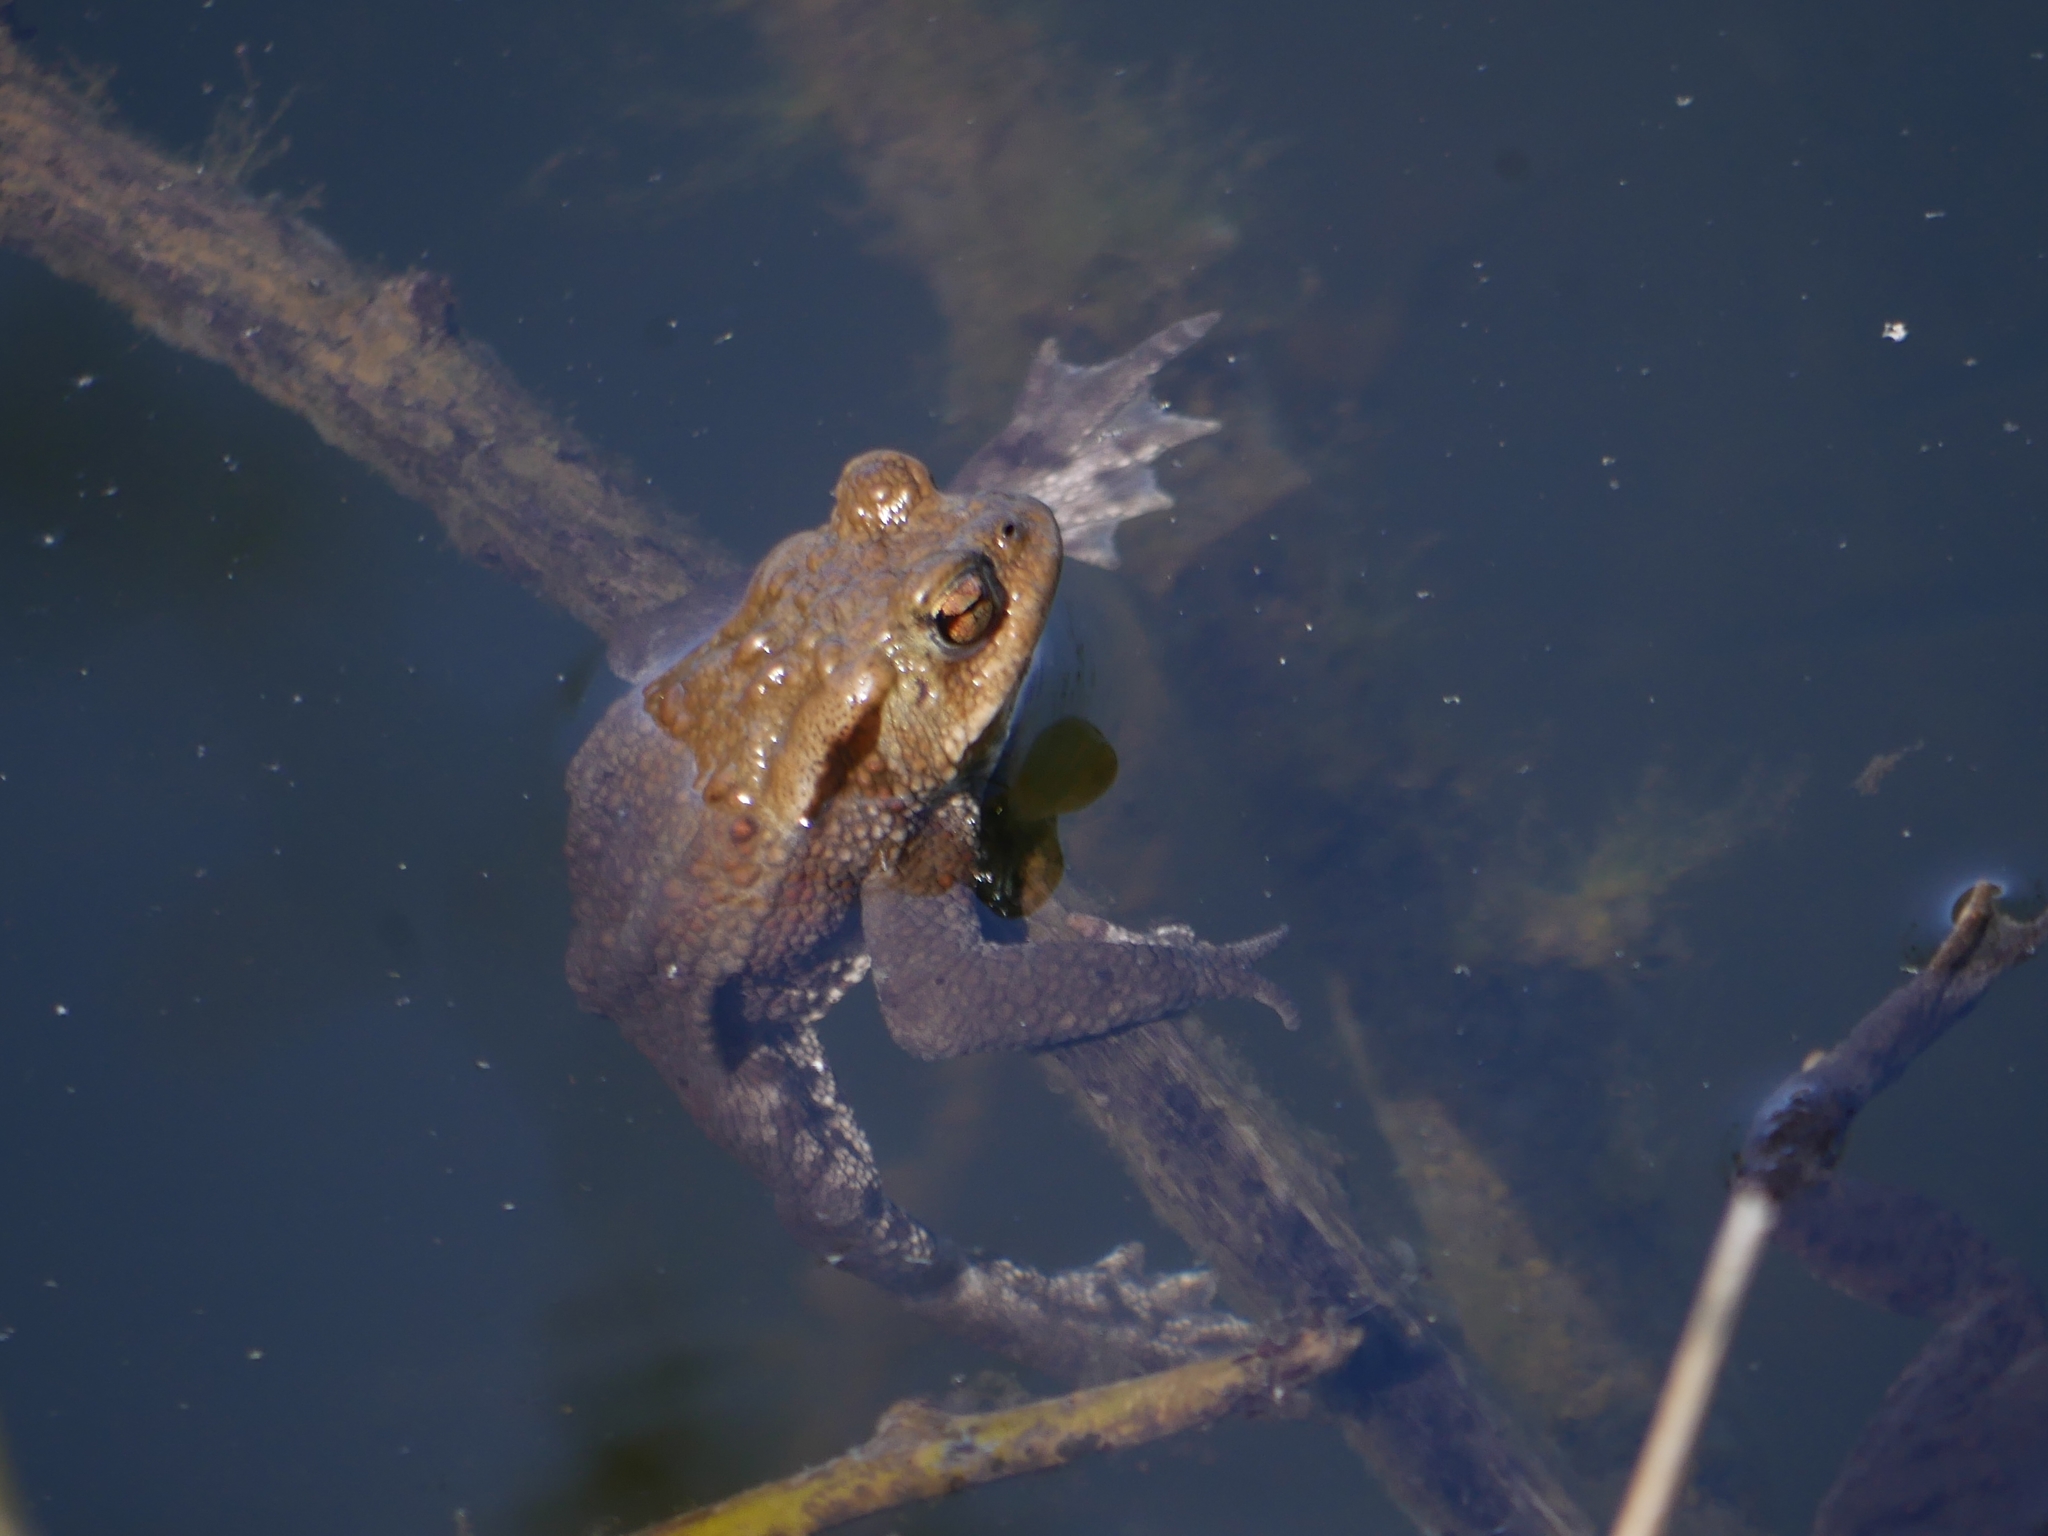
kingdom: Animalia
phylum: Chordata
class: Amphibia
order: Anura
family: Bufonidae
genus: Bufo
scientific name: Bufo bufo
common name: Common toad
